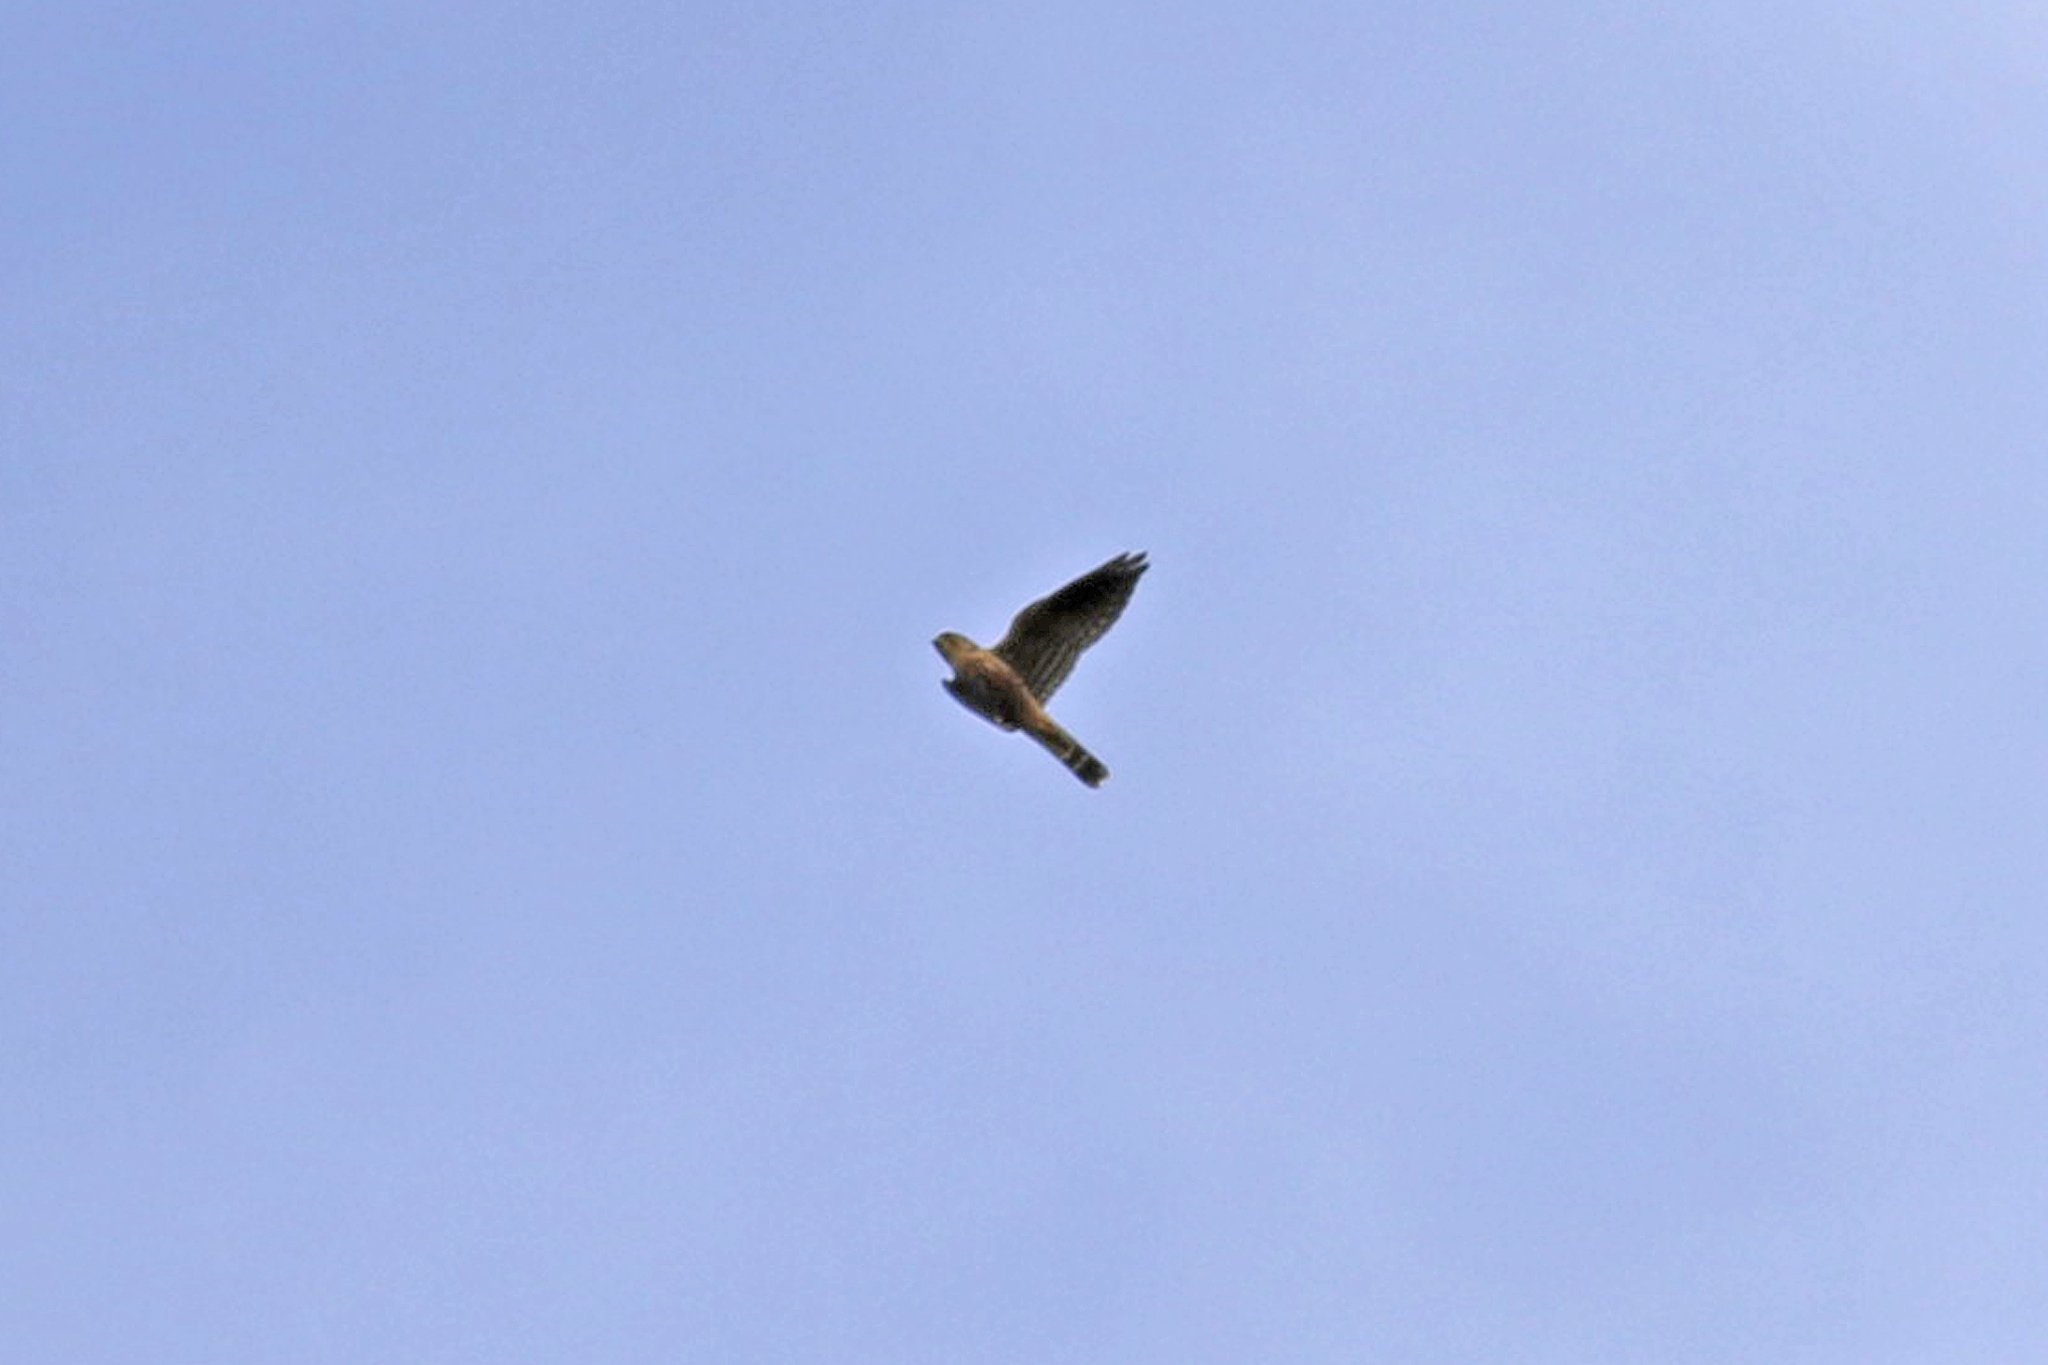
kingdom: Animalia
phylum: Chordata
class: Aves
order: Falconiformes
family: Falconidae
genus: Falco
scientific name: Falco columbarius
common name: Merlin
